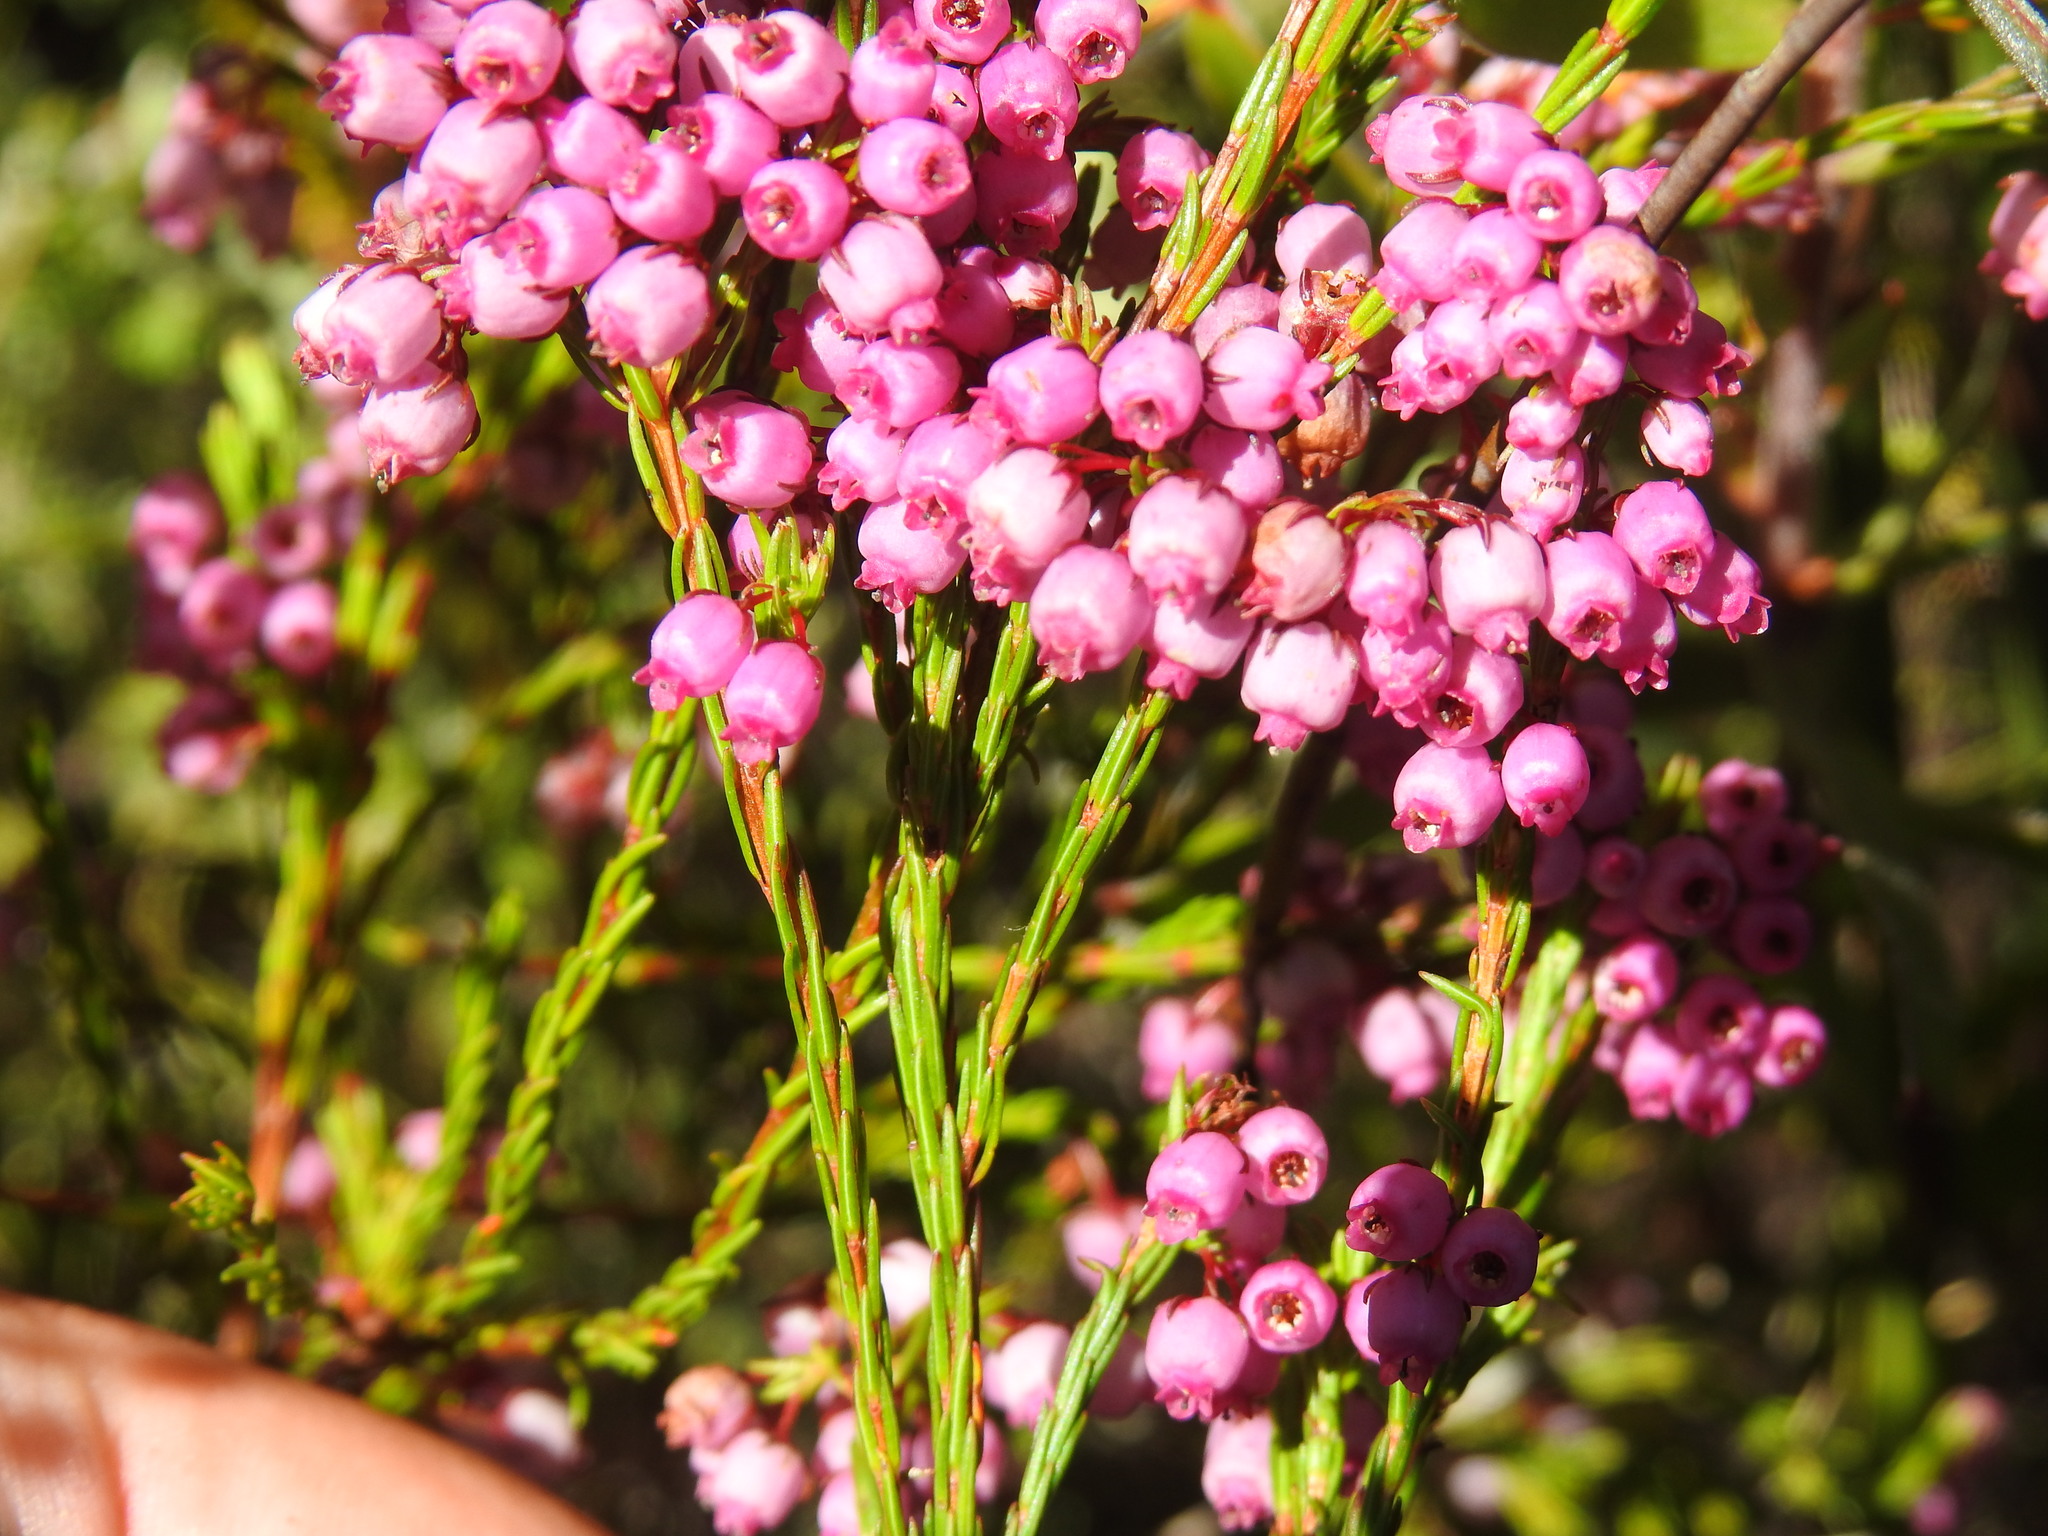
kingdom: Plantae
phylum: Tracheophyta
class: Magnoliopsida
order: Ericales
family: Ericaceae
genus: Erica
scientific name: Erica laeta
